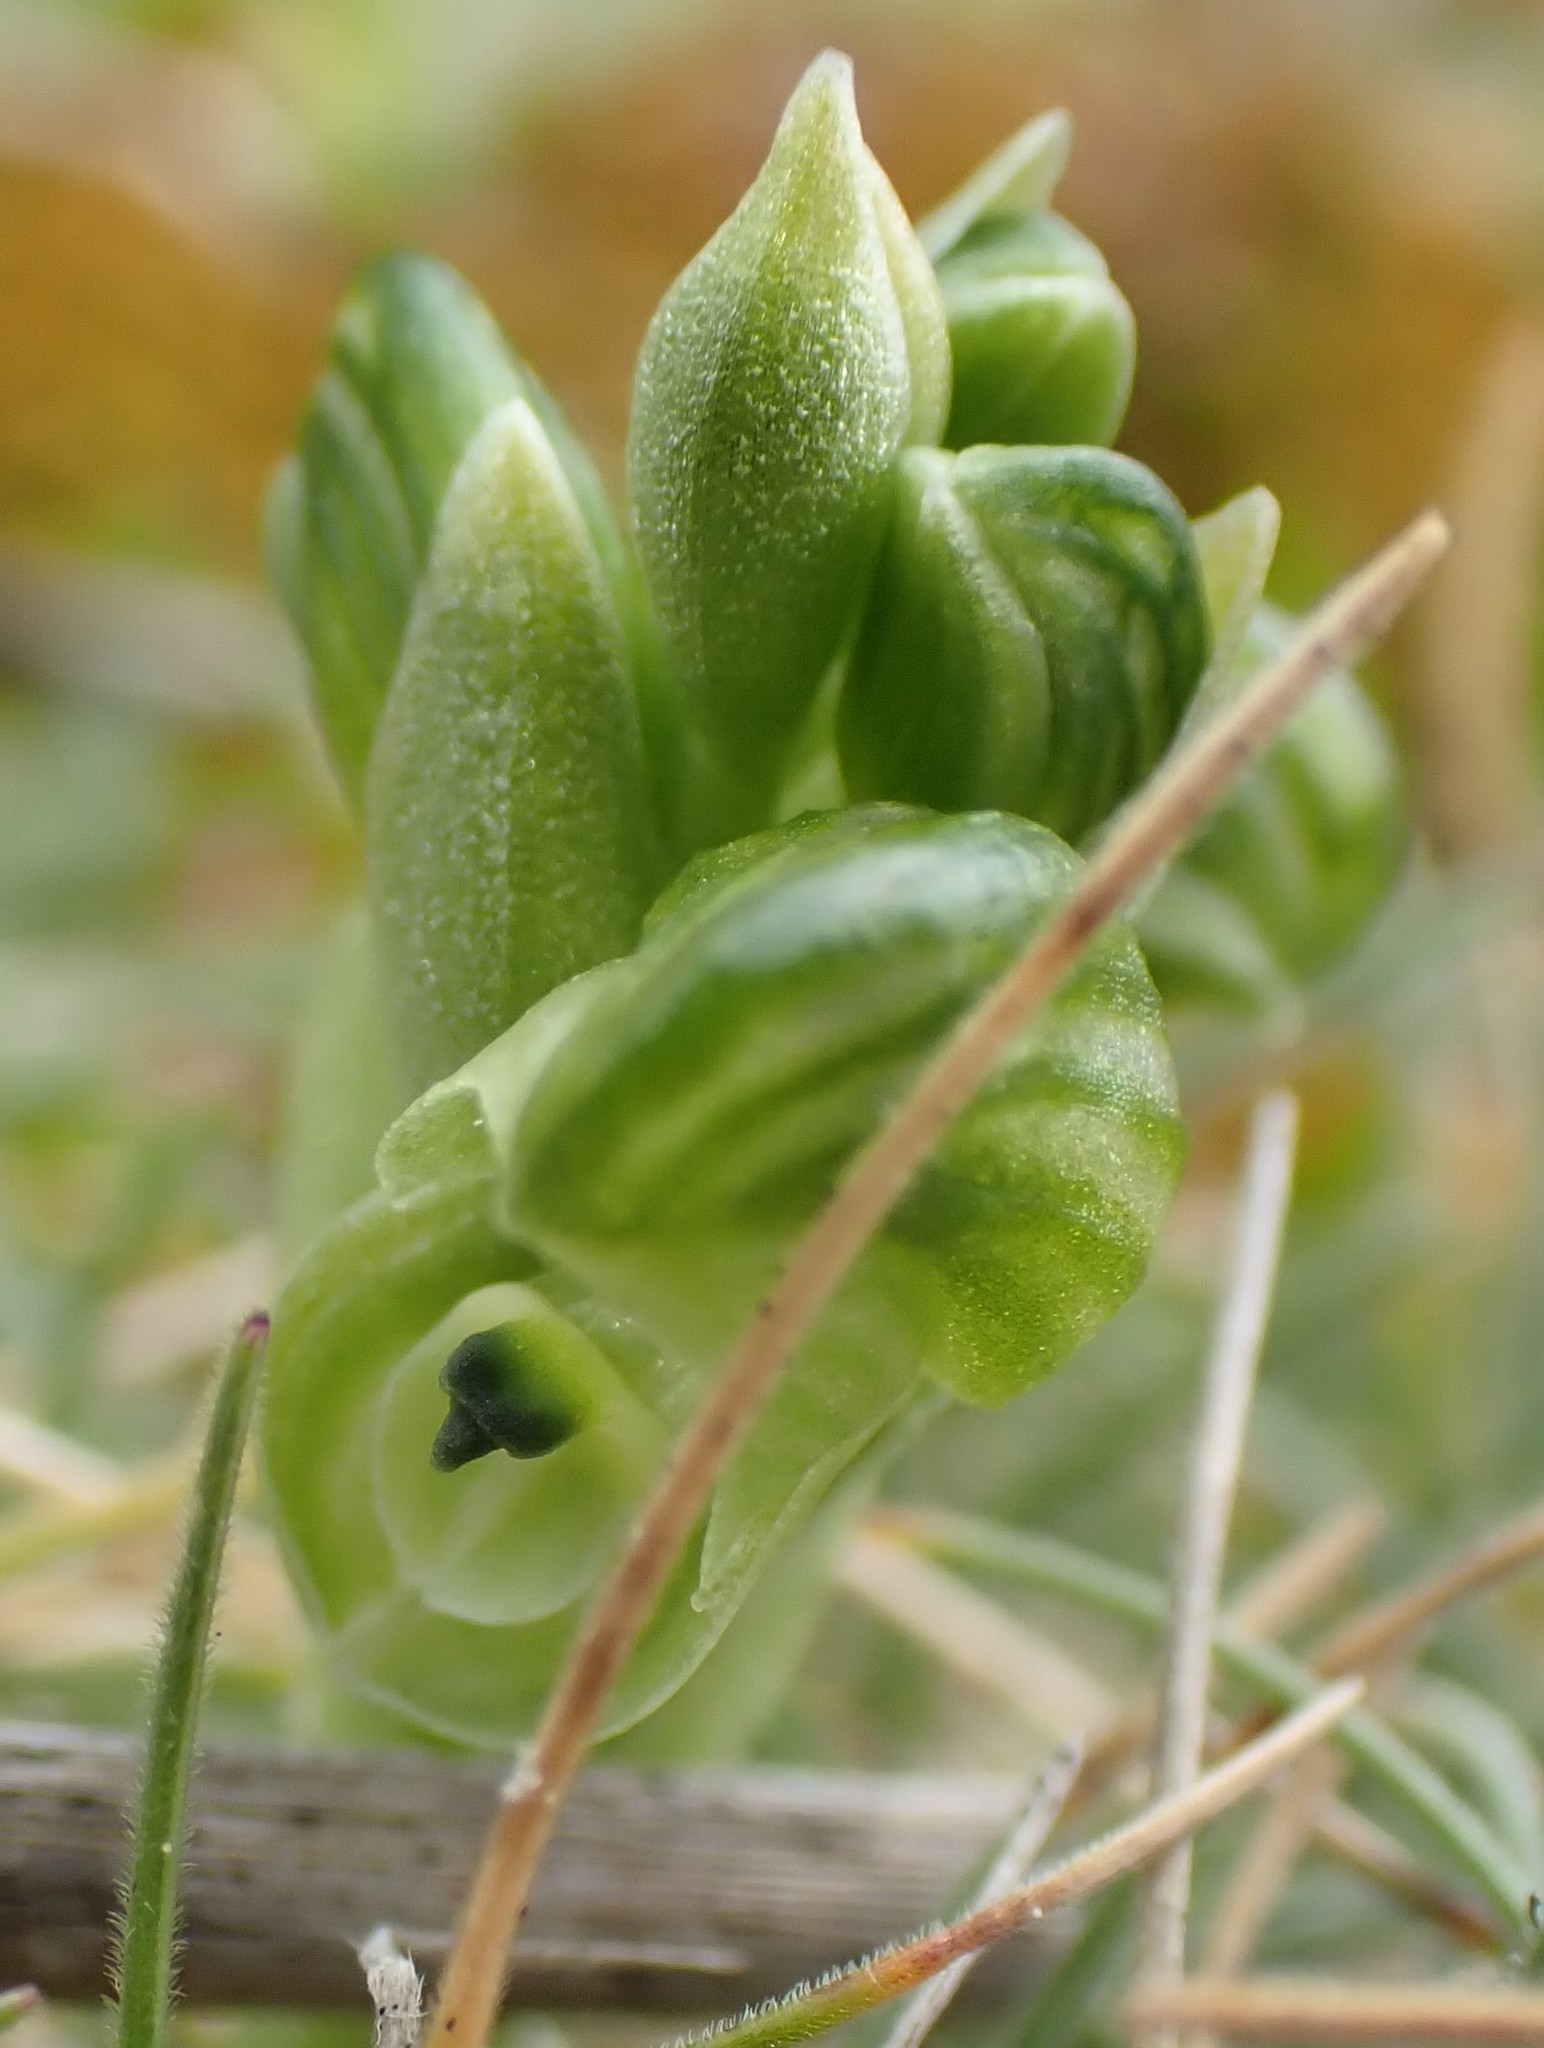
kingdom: Plantae
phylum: Tracheophyta
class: Liliopsida
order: Asparagales
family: Orchidaceae
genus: Pterostylis
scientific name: Pterostylis ziegeleri
